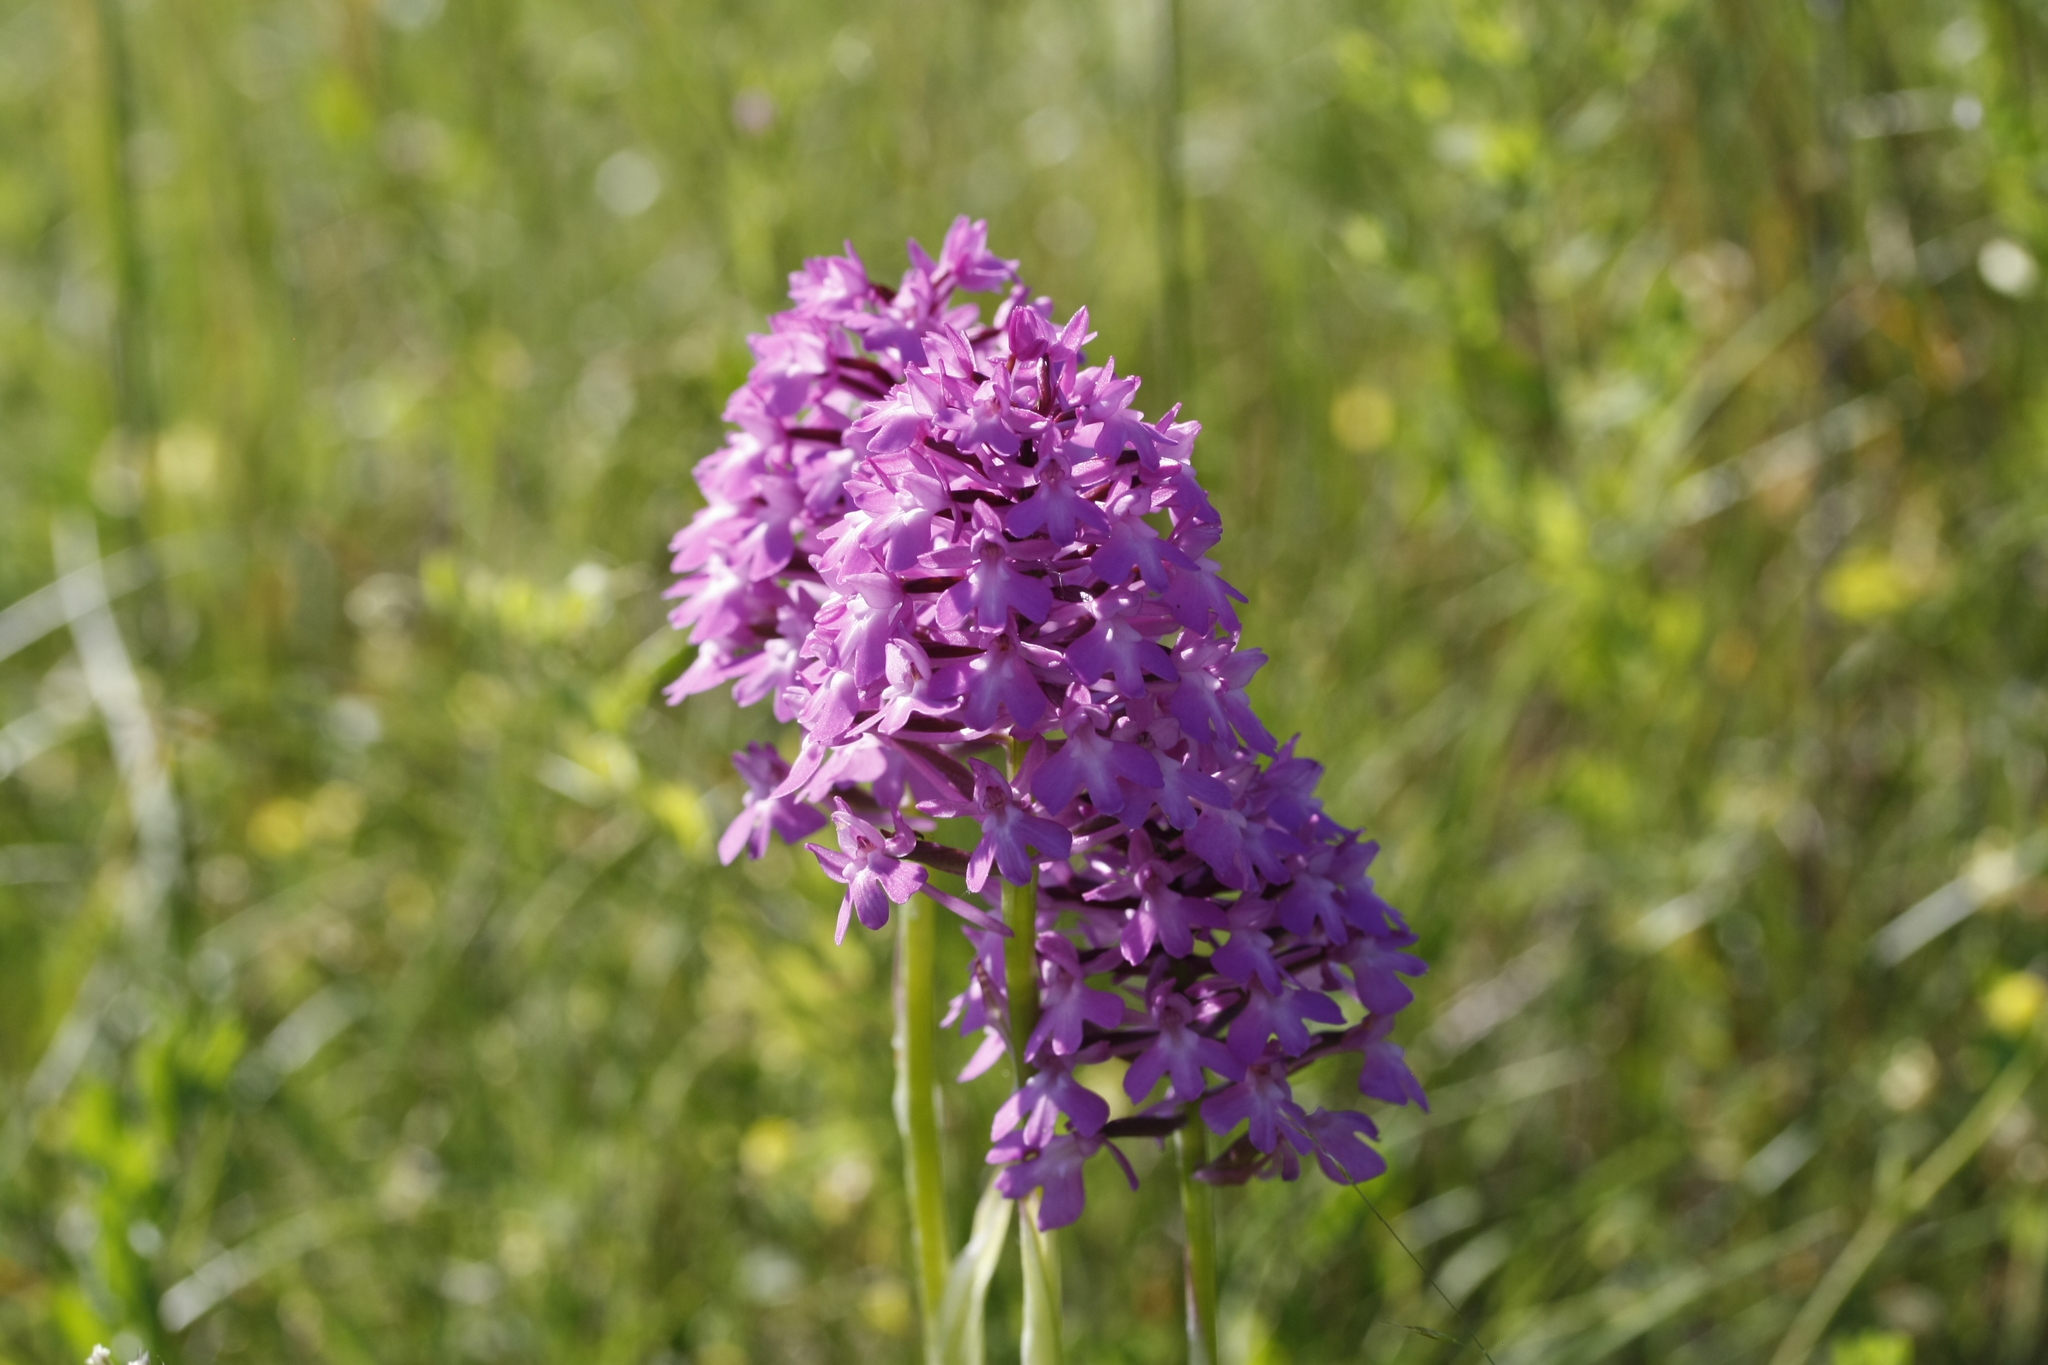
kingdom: Plantae
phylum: Tracheophyta
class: Liliopsida
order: Asparagales
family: Orchidaceae
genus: Anacamptis
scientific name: Anacamptis pyramidalis
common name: Pyramidal orchid
